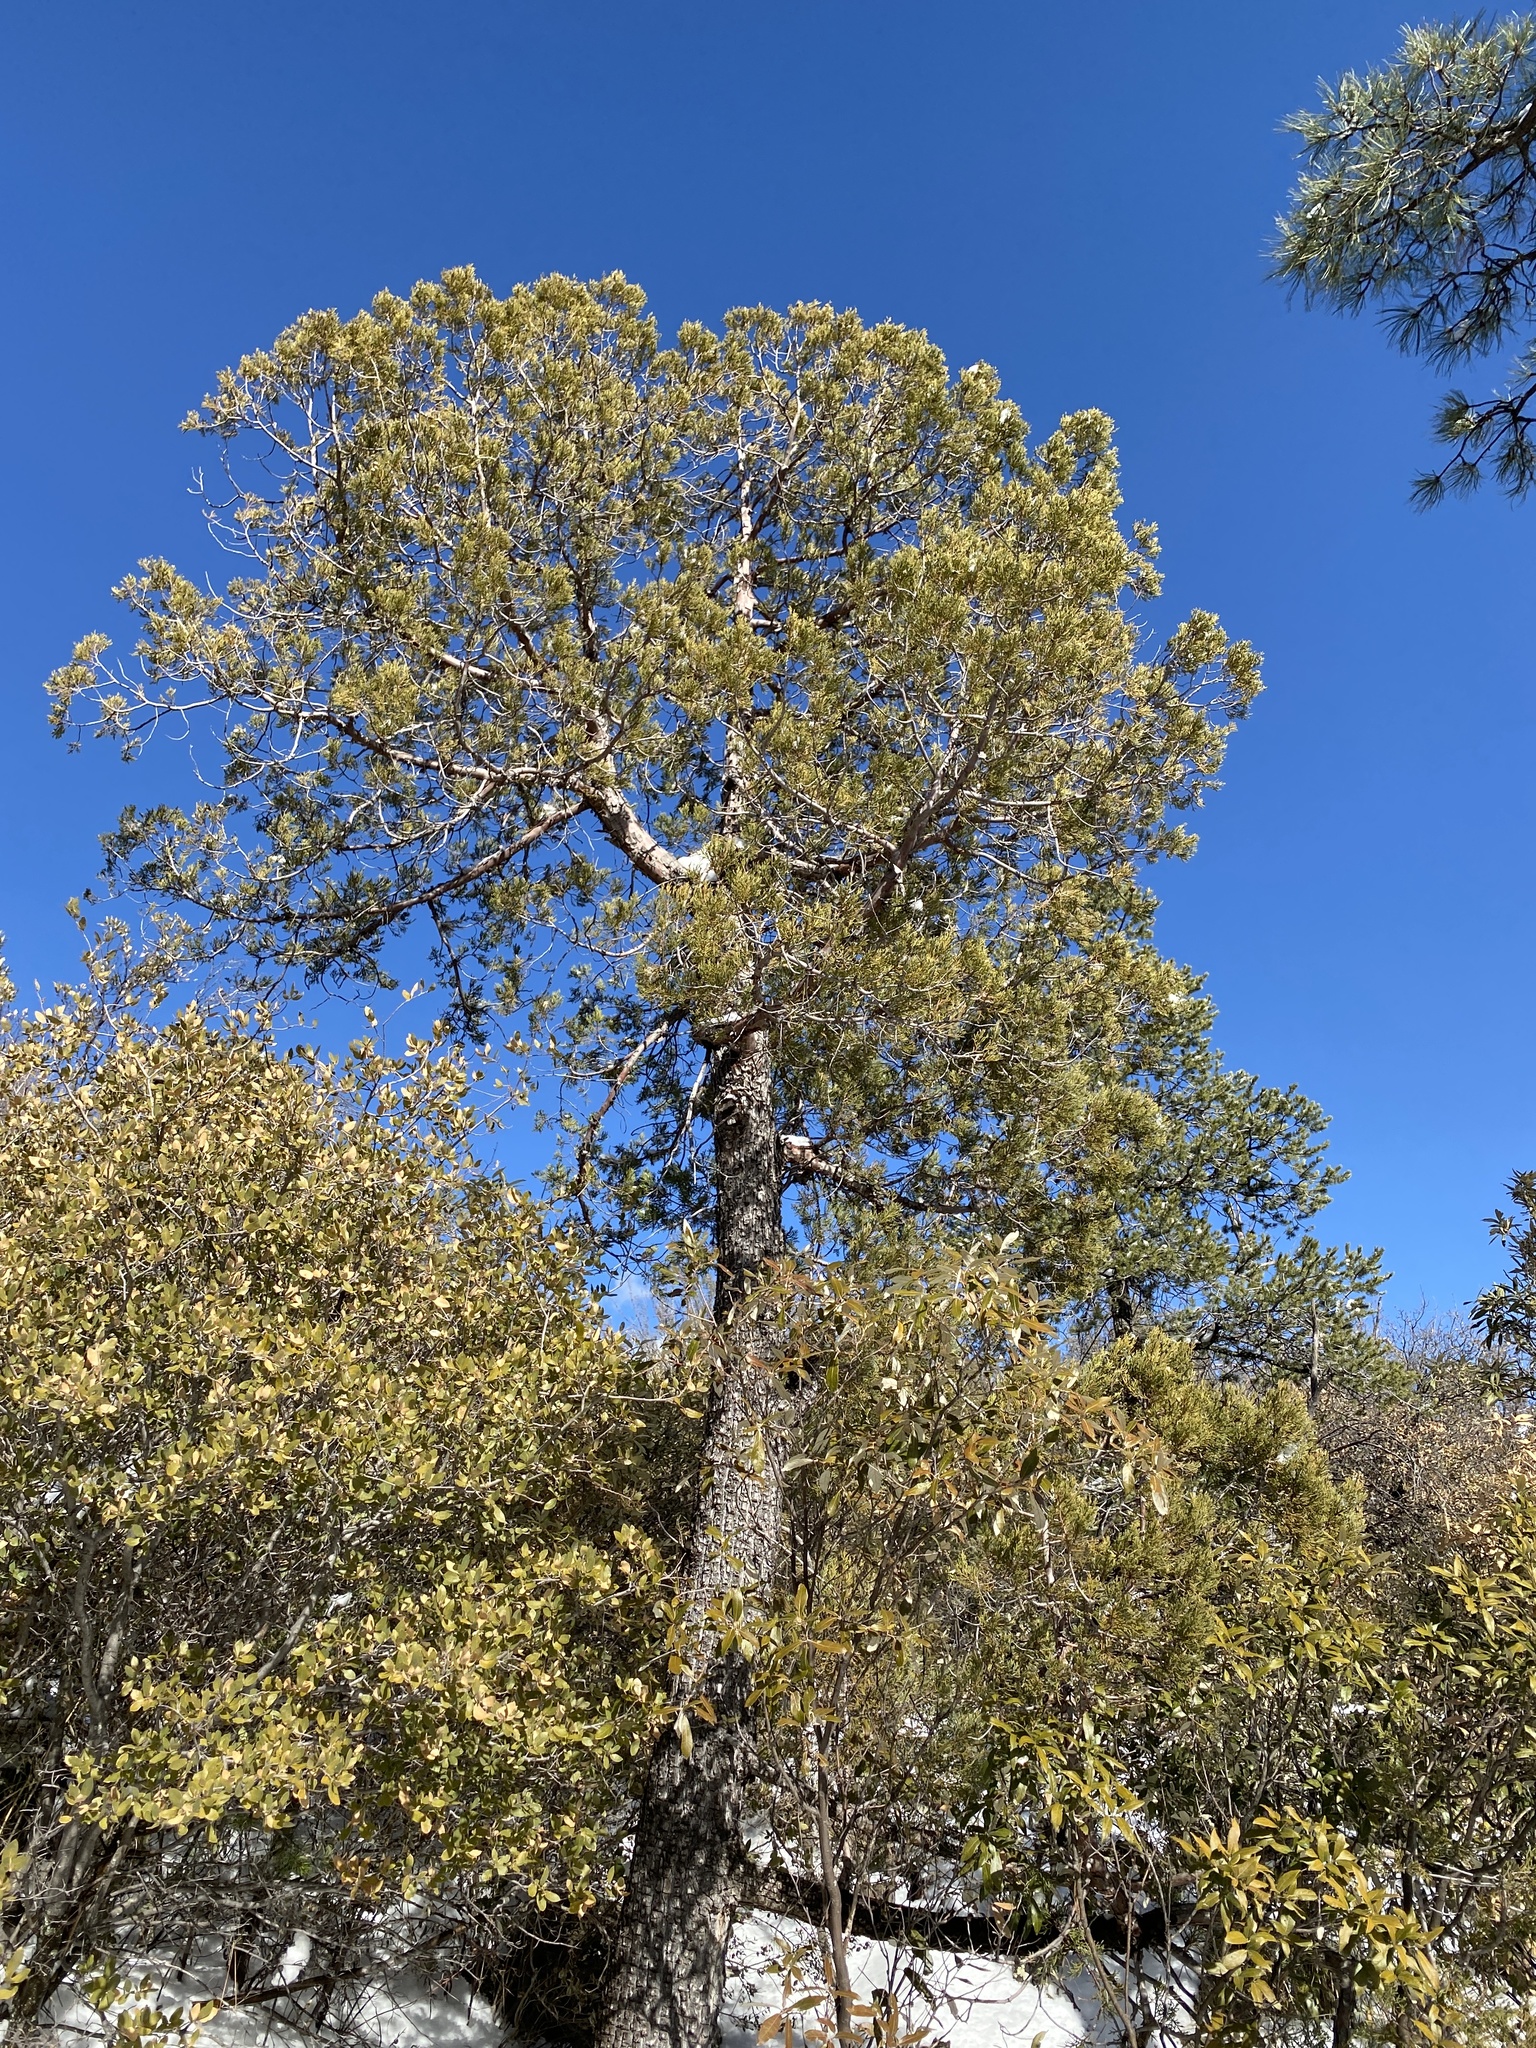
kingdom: Plantae
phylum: Tracheophyta
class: Pinopsida
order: Pinales
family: Pinaceae
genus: Pinus
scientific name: Pinus ponderosa
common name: Western yellow-pine
